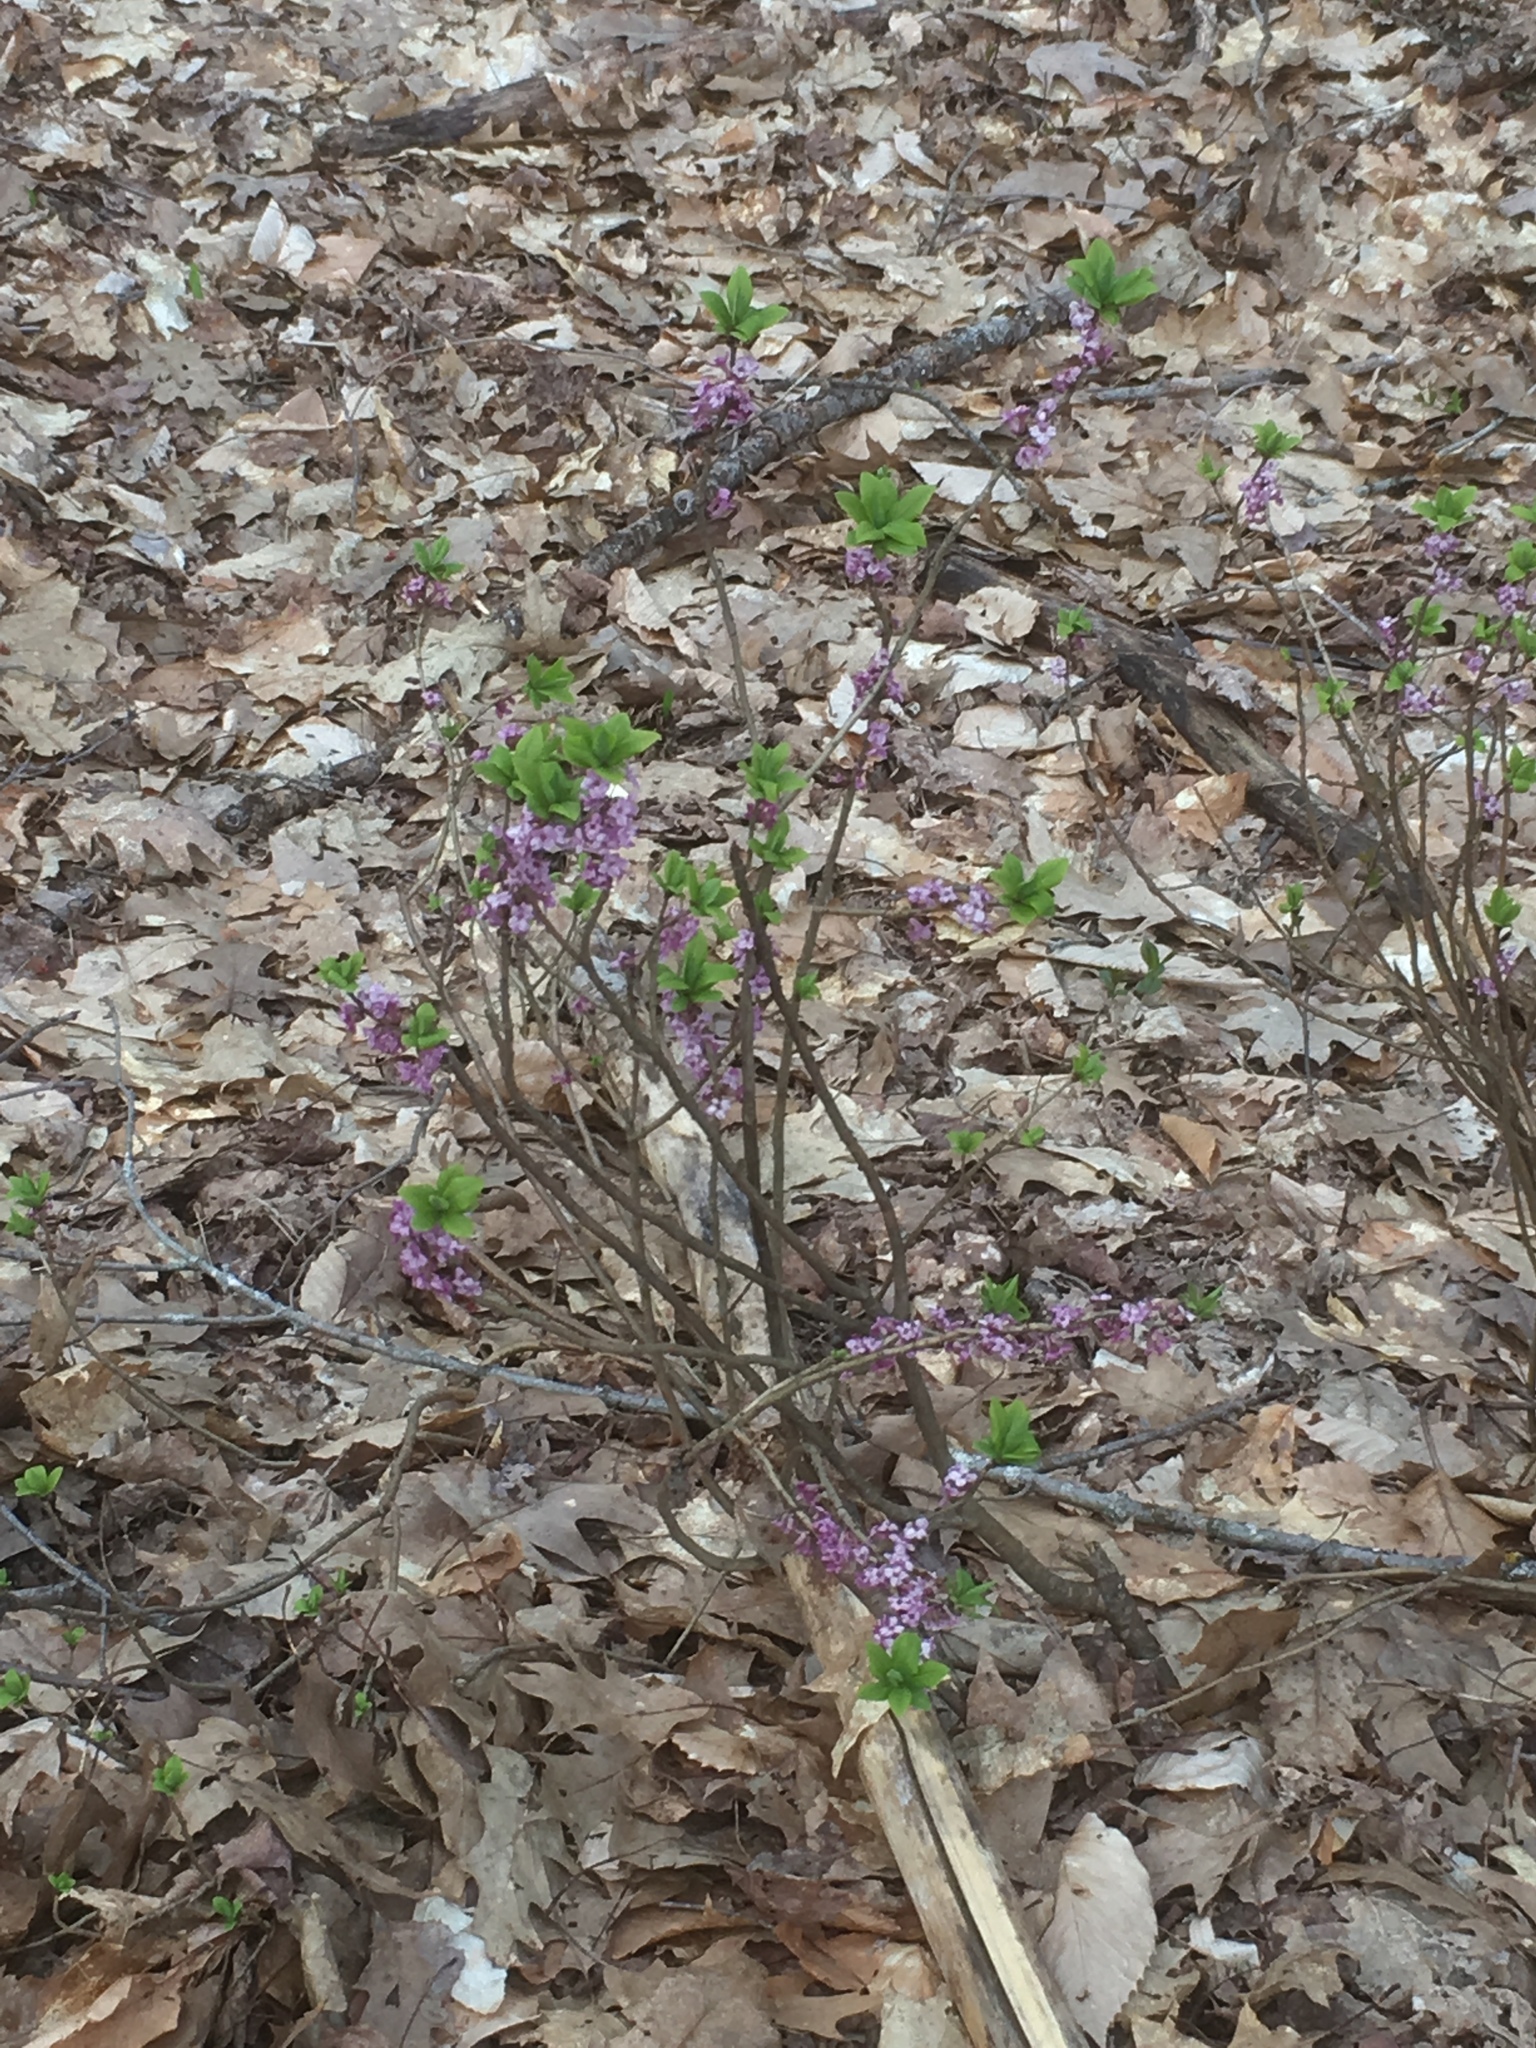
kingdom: Plantae
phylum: Tracheophyta
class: Magnoliopsida
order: Malvales
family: Thymelaeaceae
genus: Daphne
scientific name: Daphne mezereum
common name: Mezereon
